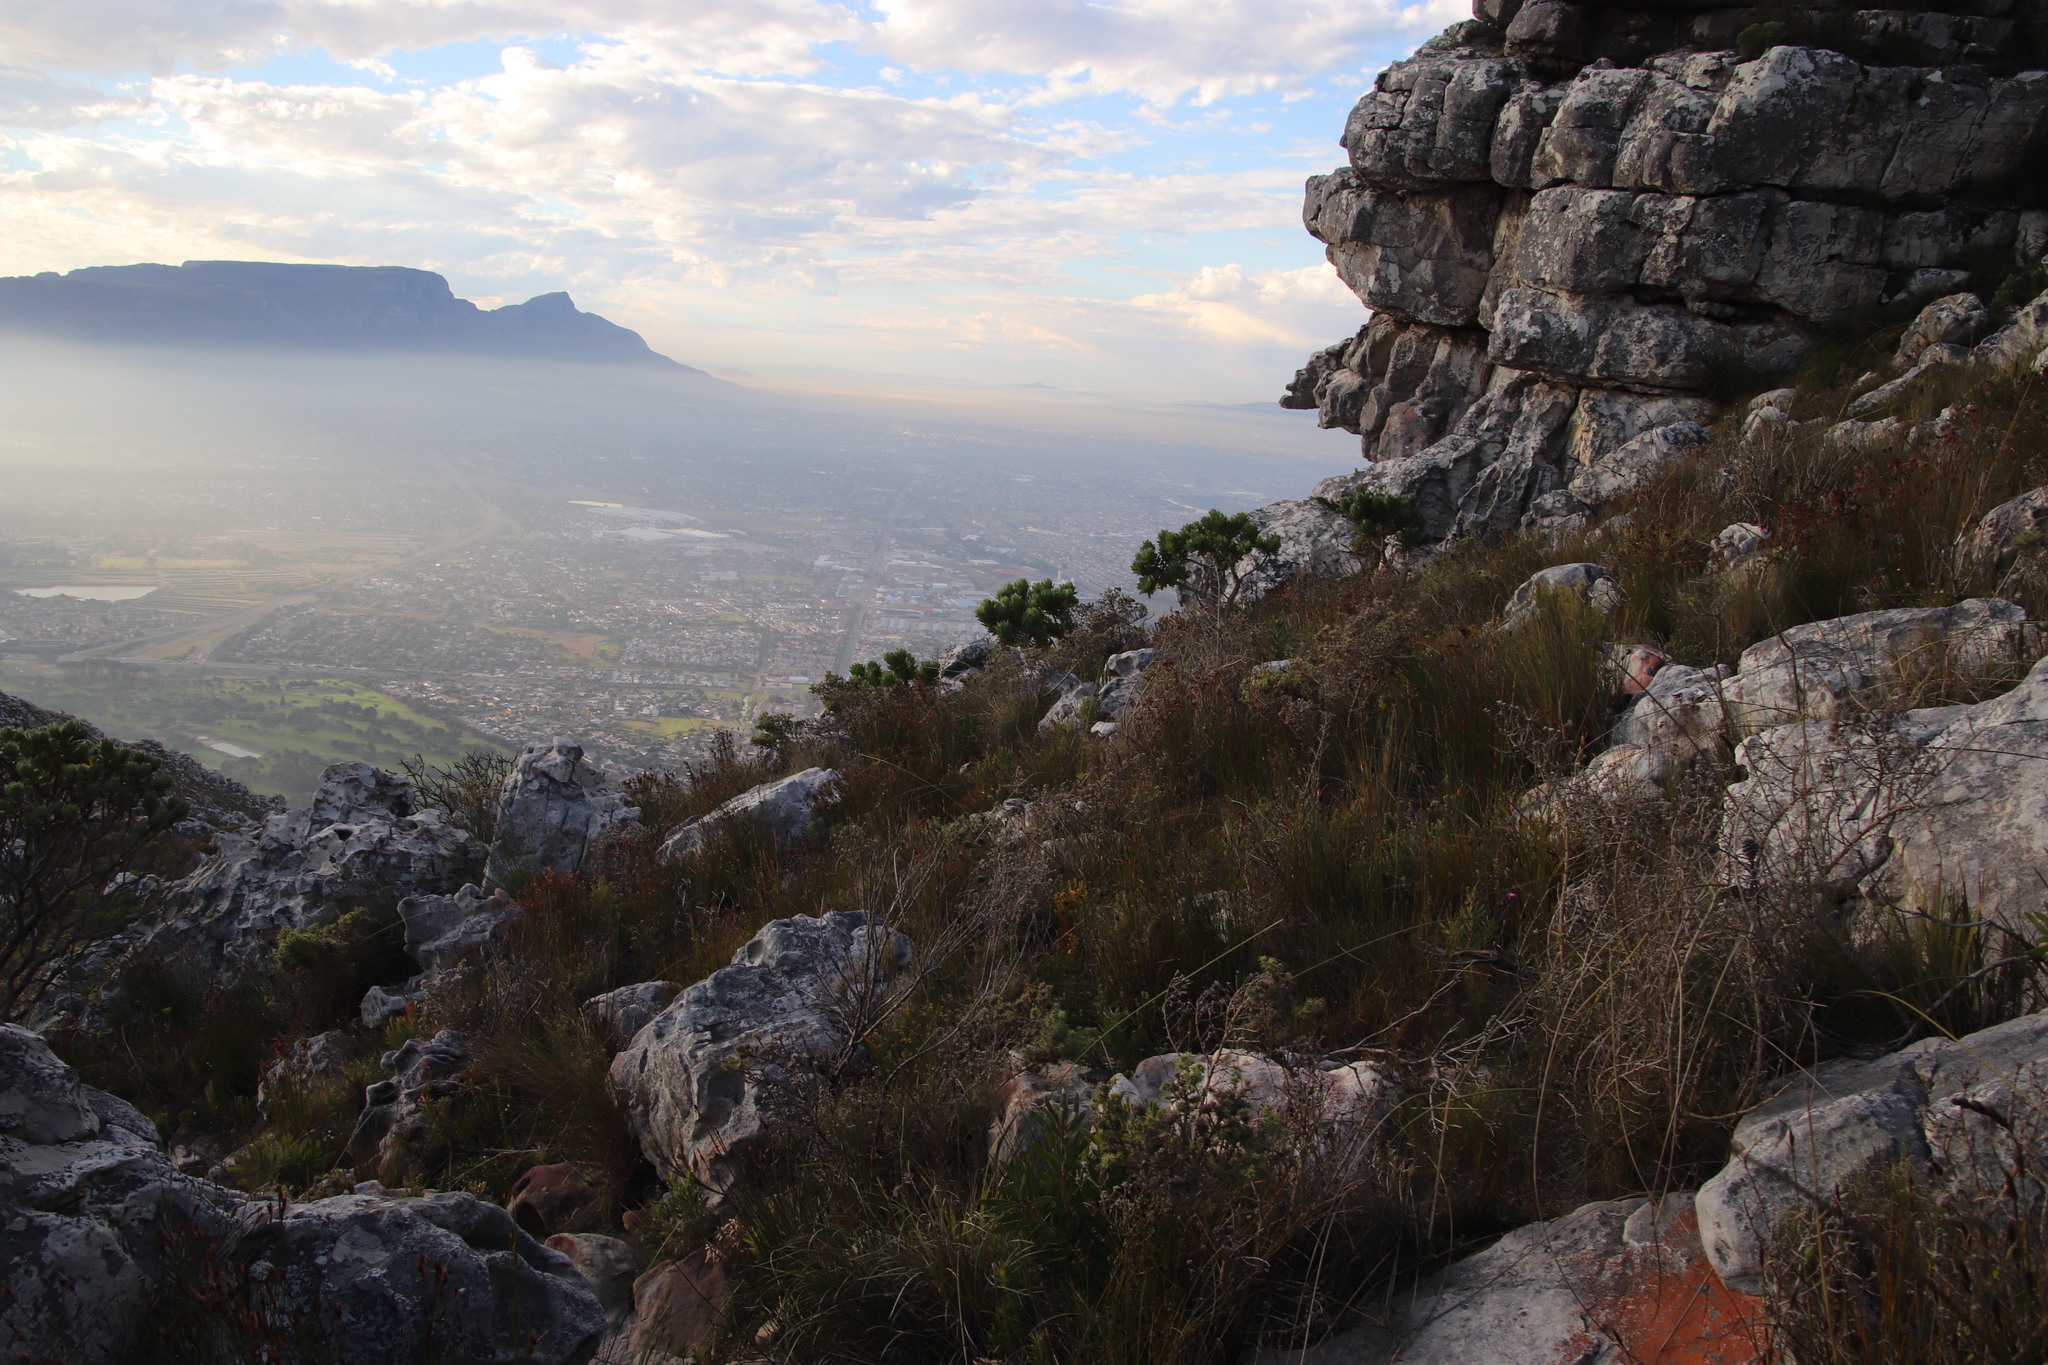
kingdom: Plantae
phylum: Tracheophyta
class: Magnoliopsida
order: Proteales
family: Proteaceae
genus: Leucospermum
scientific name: Leucospermum conocarpodendron
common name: Tree pincushion
